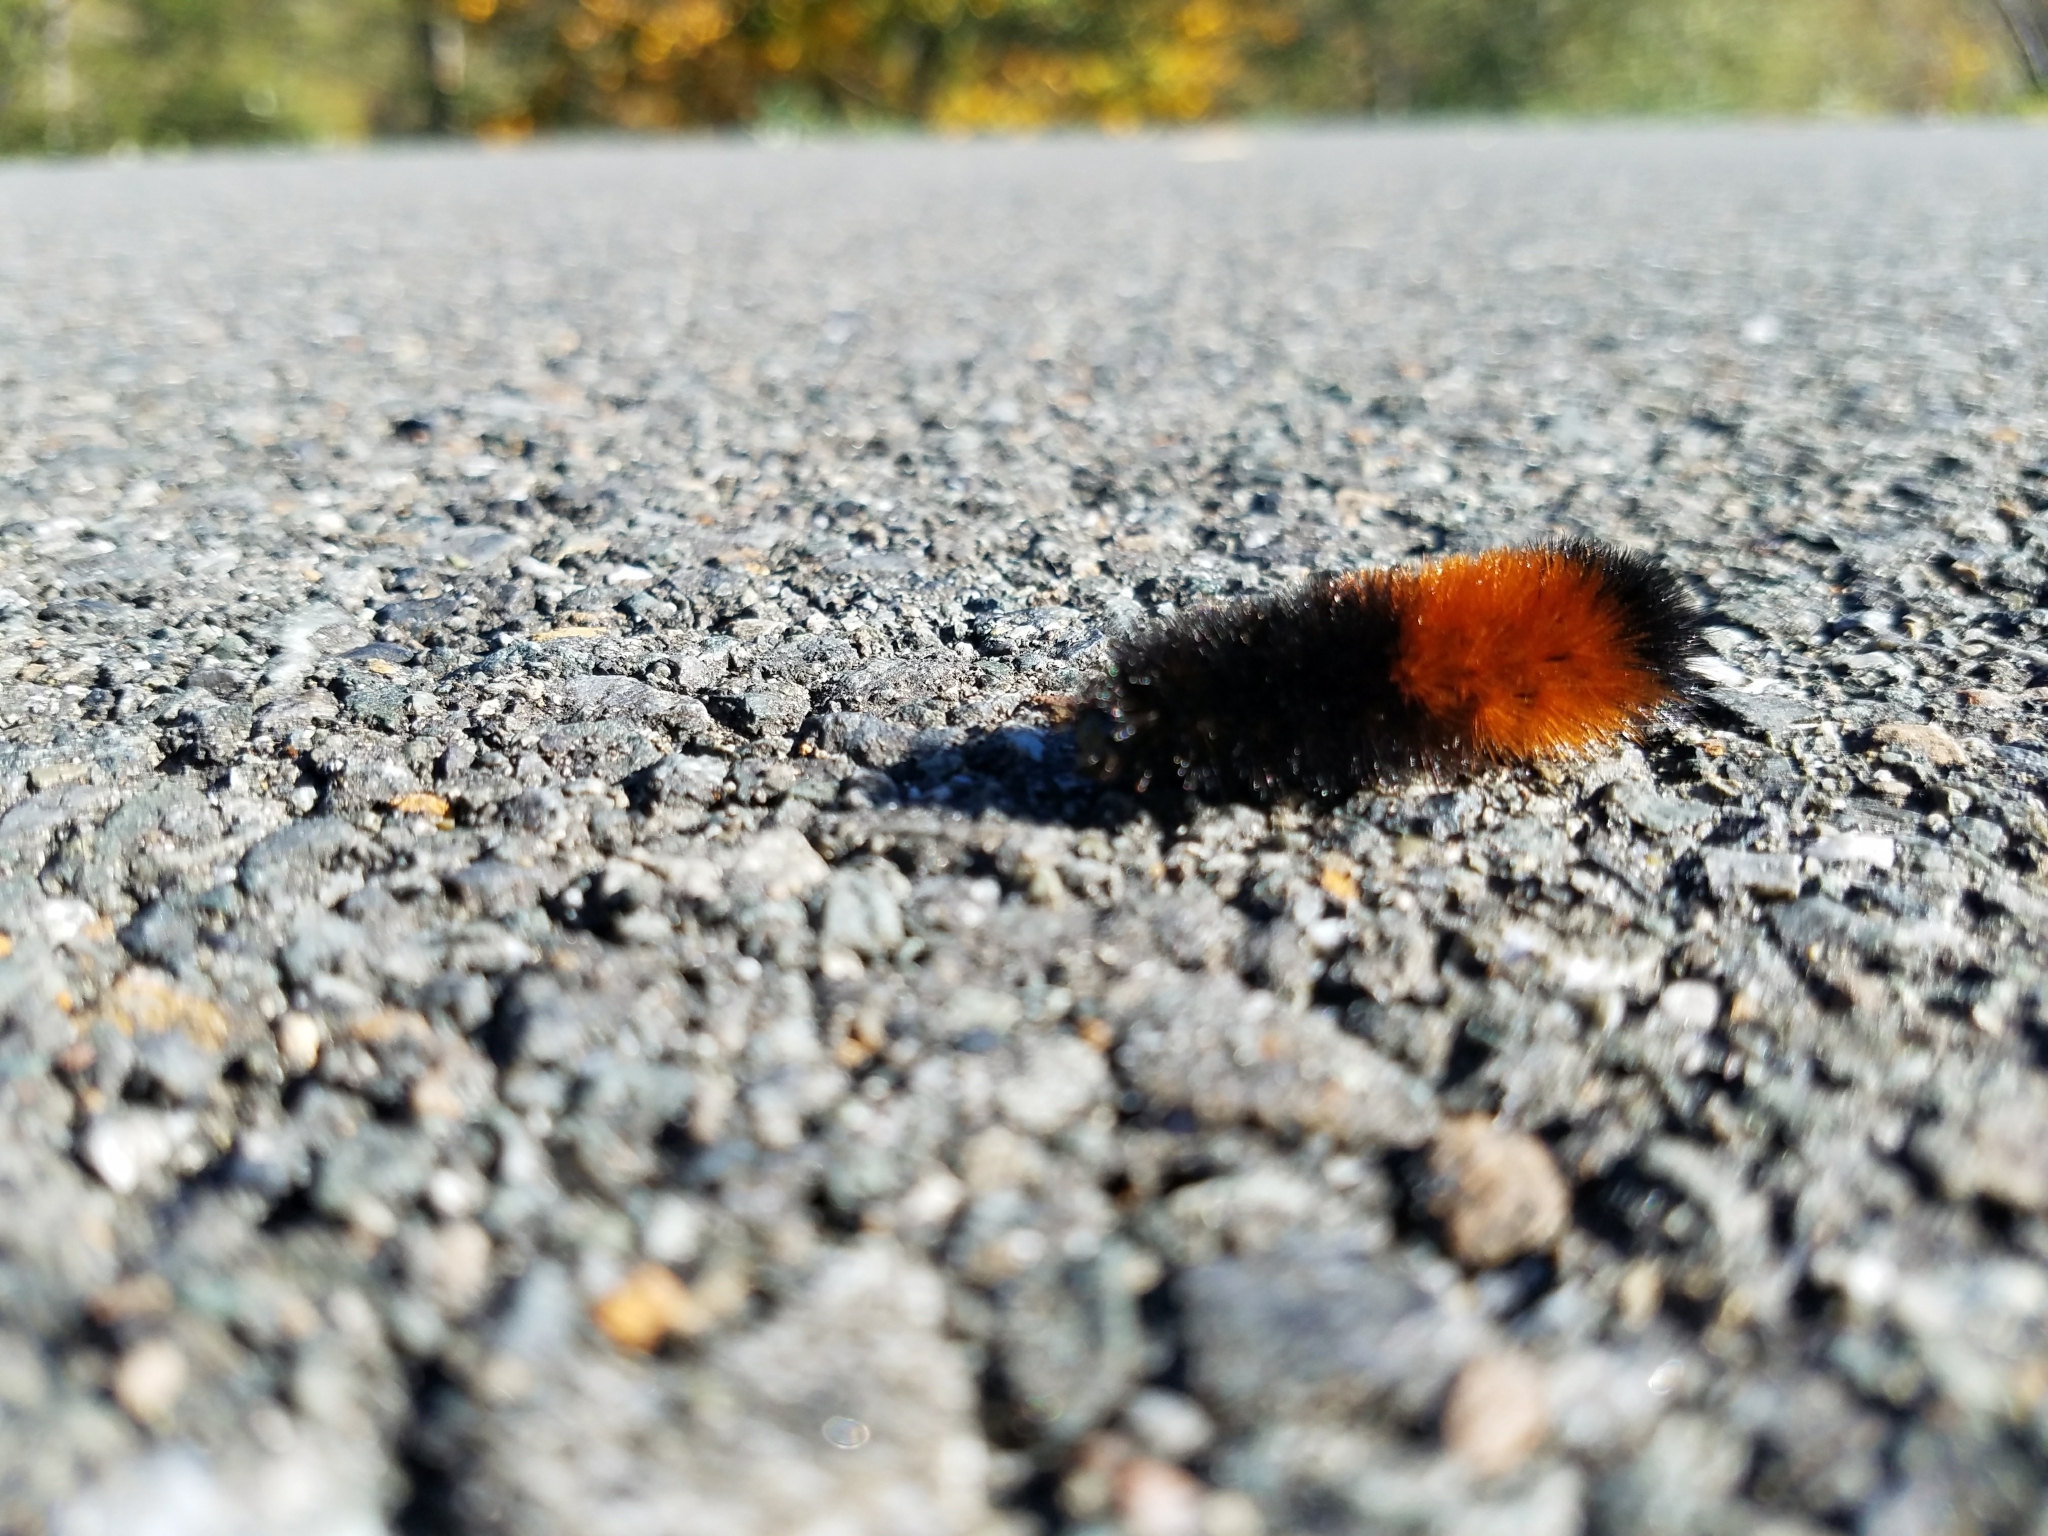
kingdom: Animalia
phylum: Arthropoda
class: Insecta
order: Lepidoptera
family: Erebidae
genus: Pyrrharctia
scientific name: Pyrrharctia isabella
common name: Isabella tiger moth
